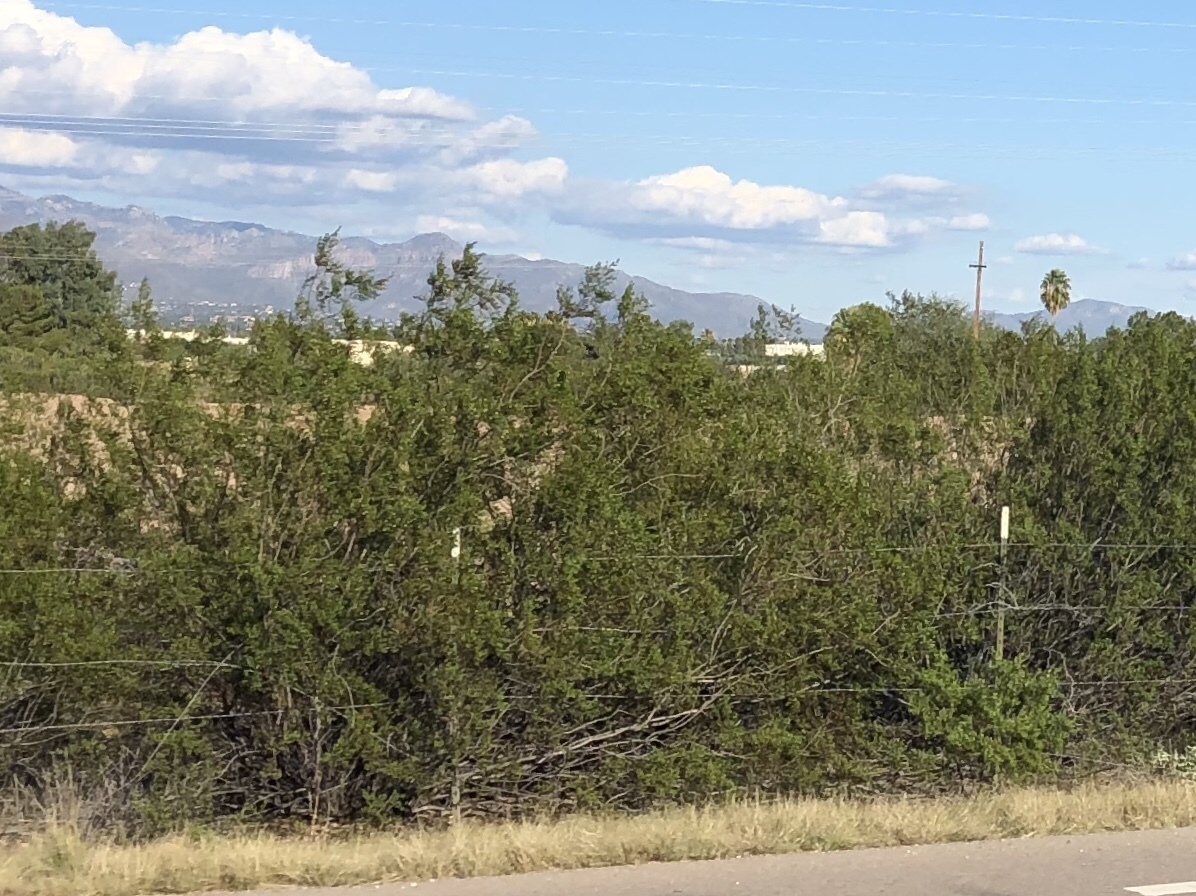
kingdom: Plantae
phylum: Tracheophyta
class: Magnoliopsida
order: Zygophyllales
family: Zygophyllaceae
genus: Larrea
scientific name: Larrea tridentata
